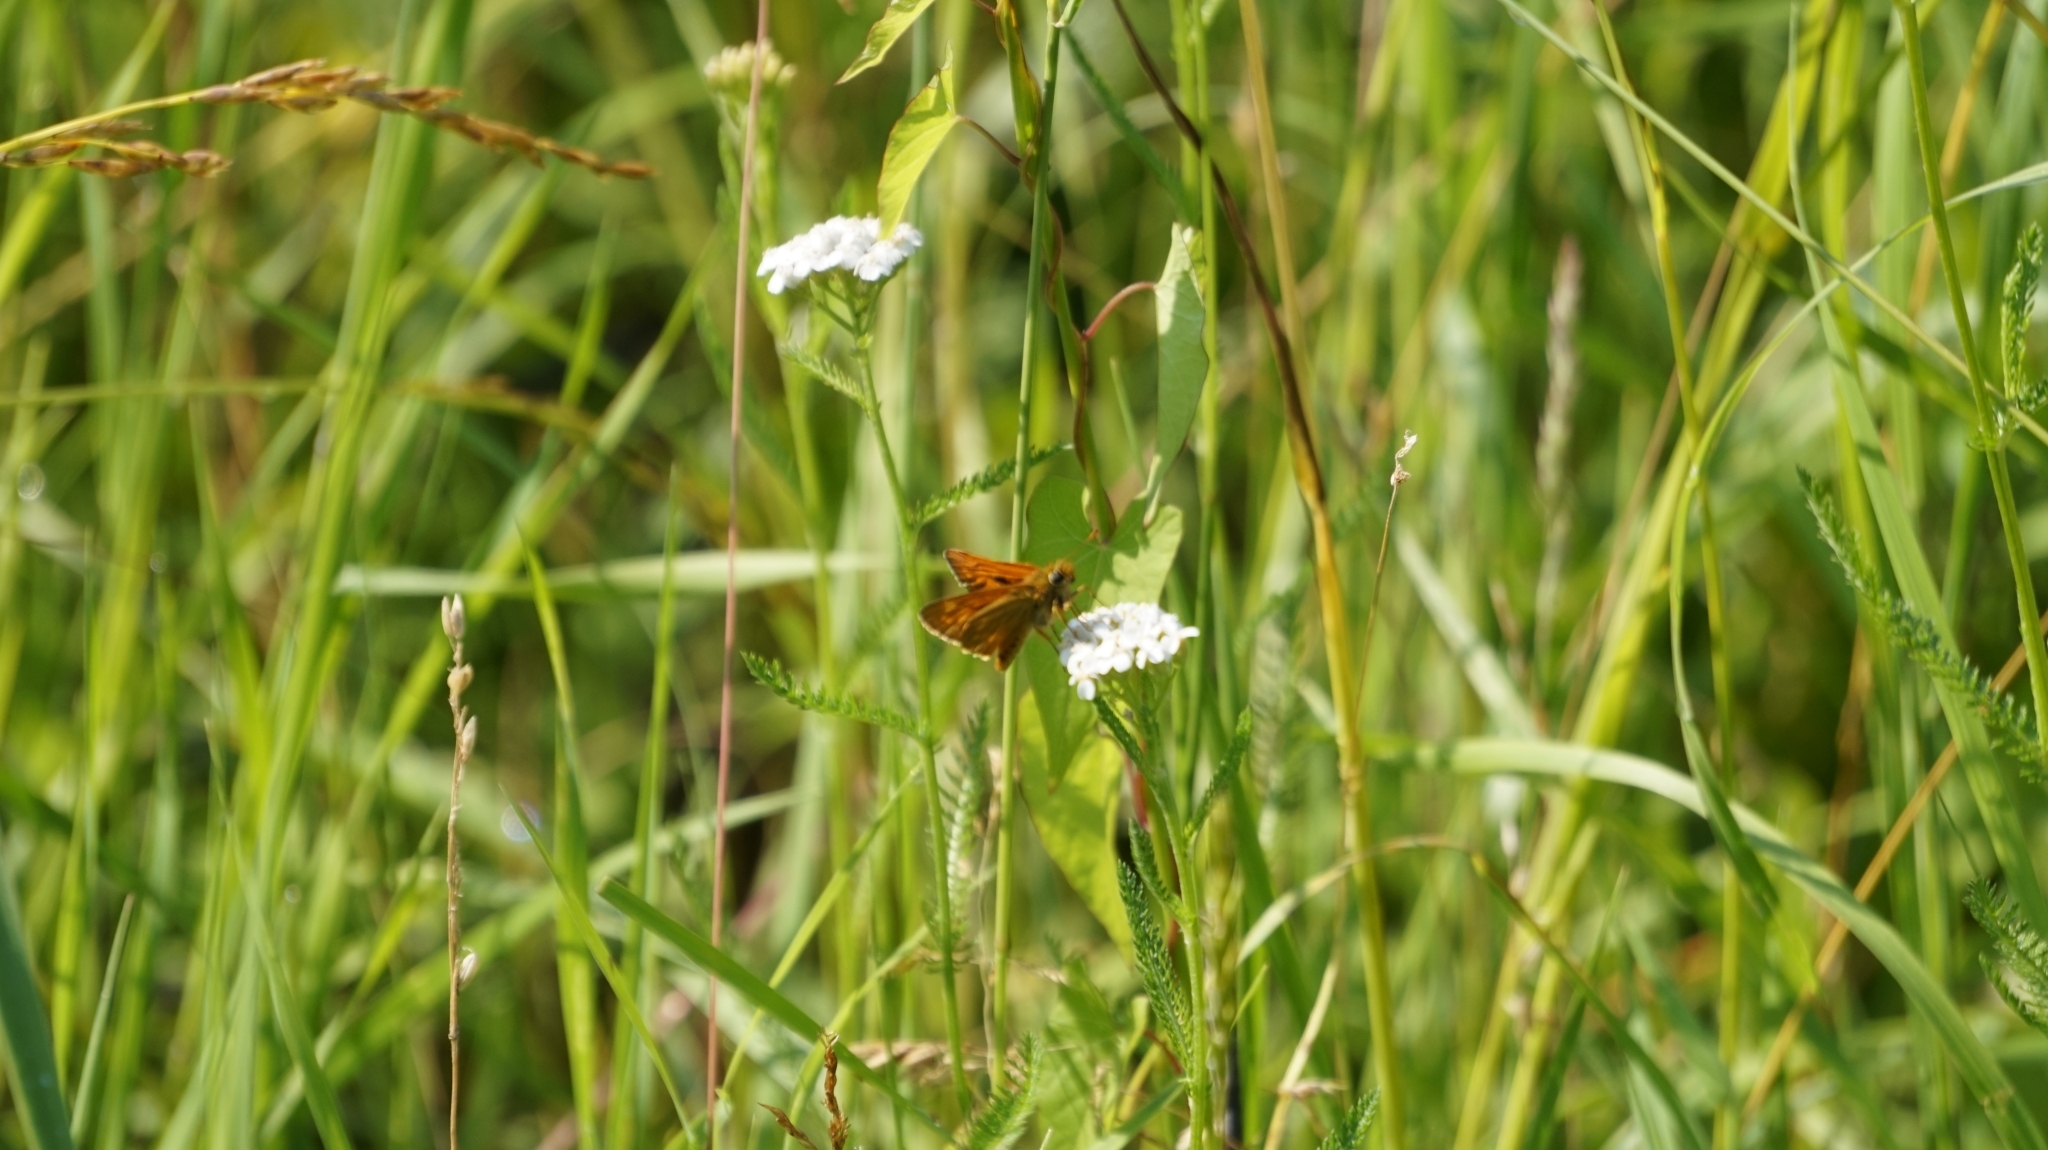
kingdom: Animalia
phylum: Arthropoda
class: Insecta
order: Lepidoptera
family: Hesperiidae
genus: Ochlodes
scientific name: Ochlodes venata
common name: Large skipper
